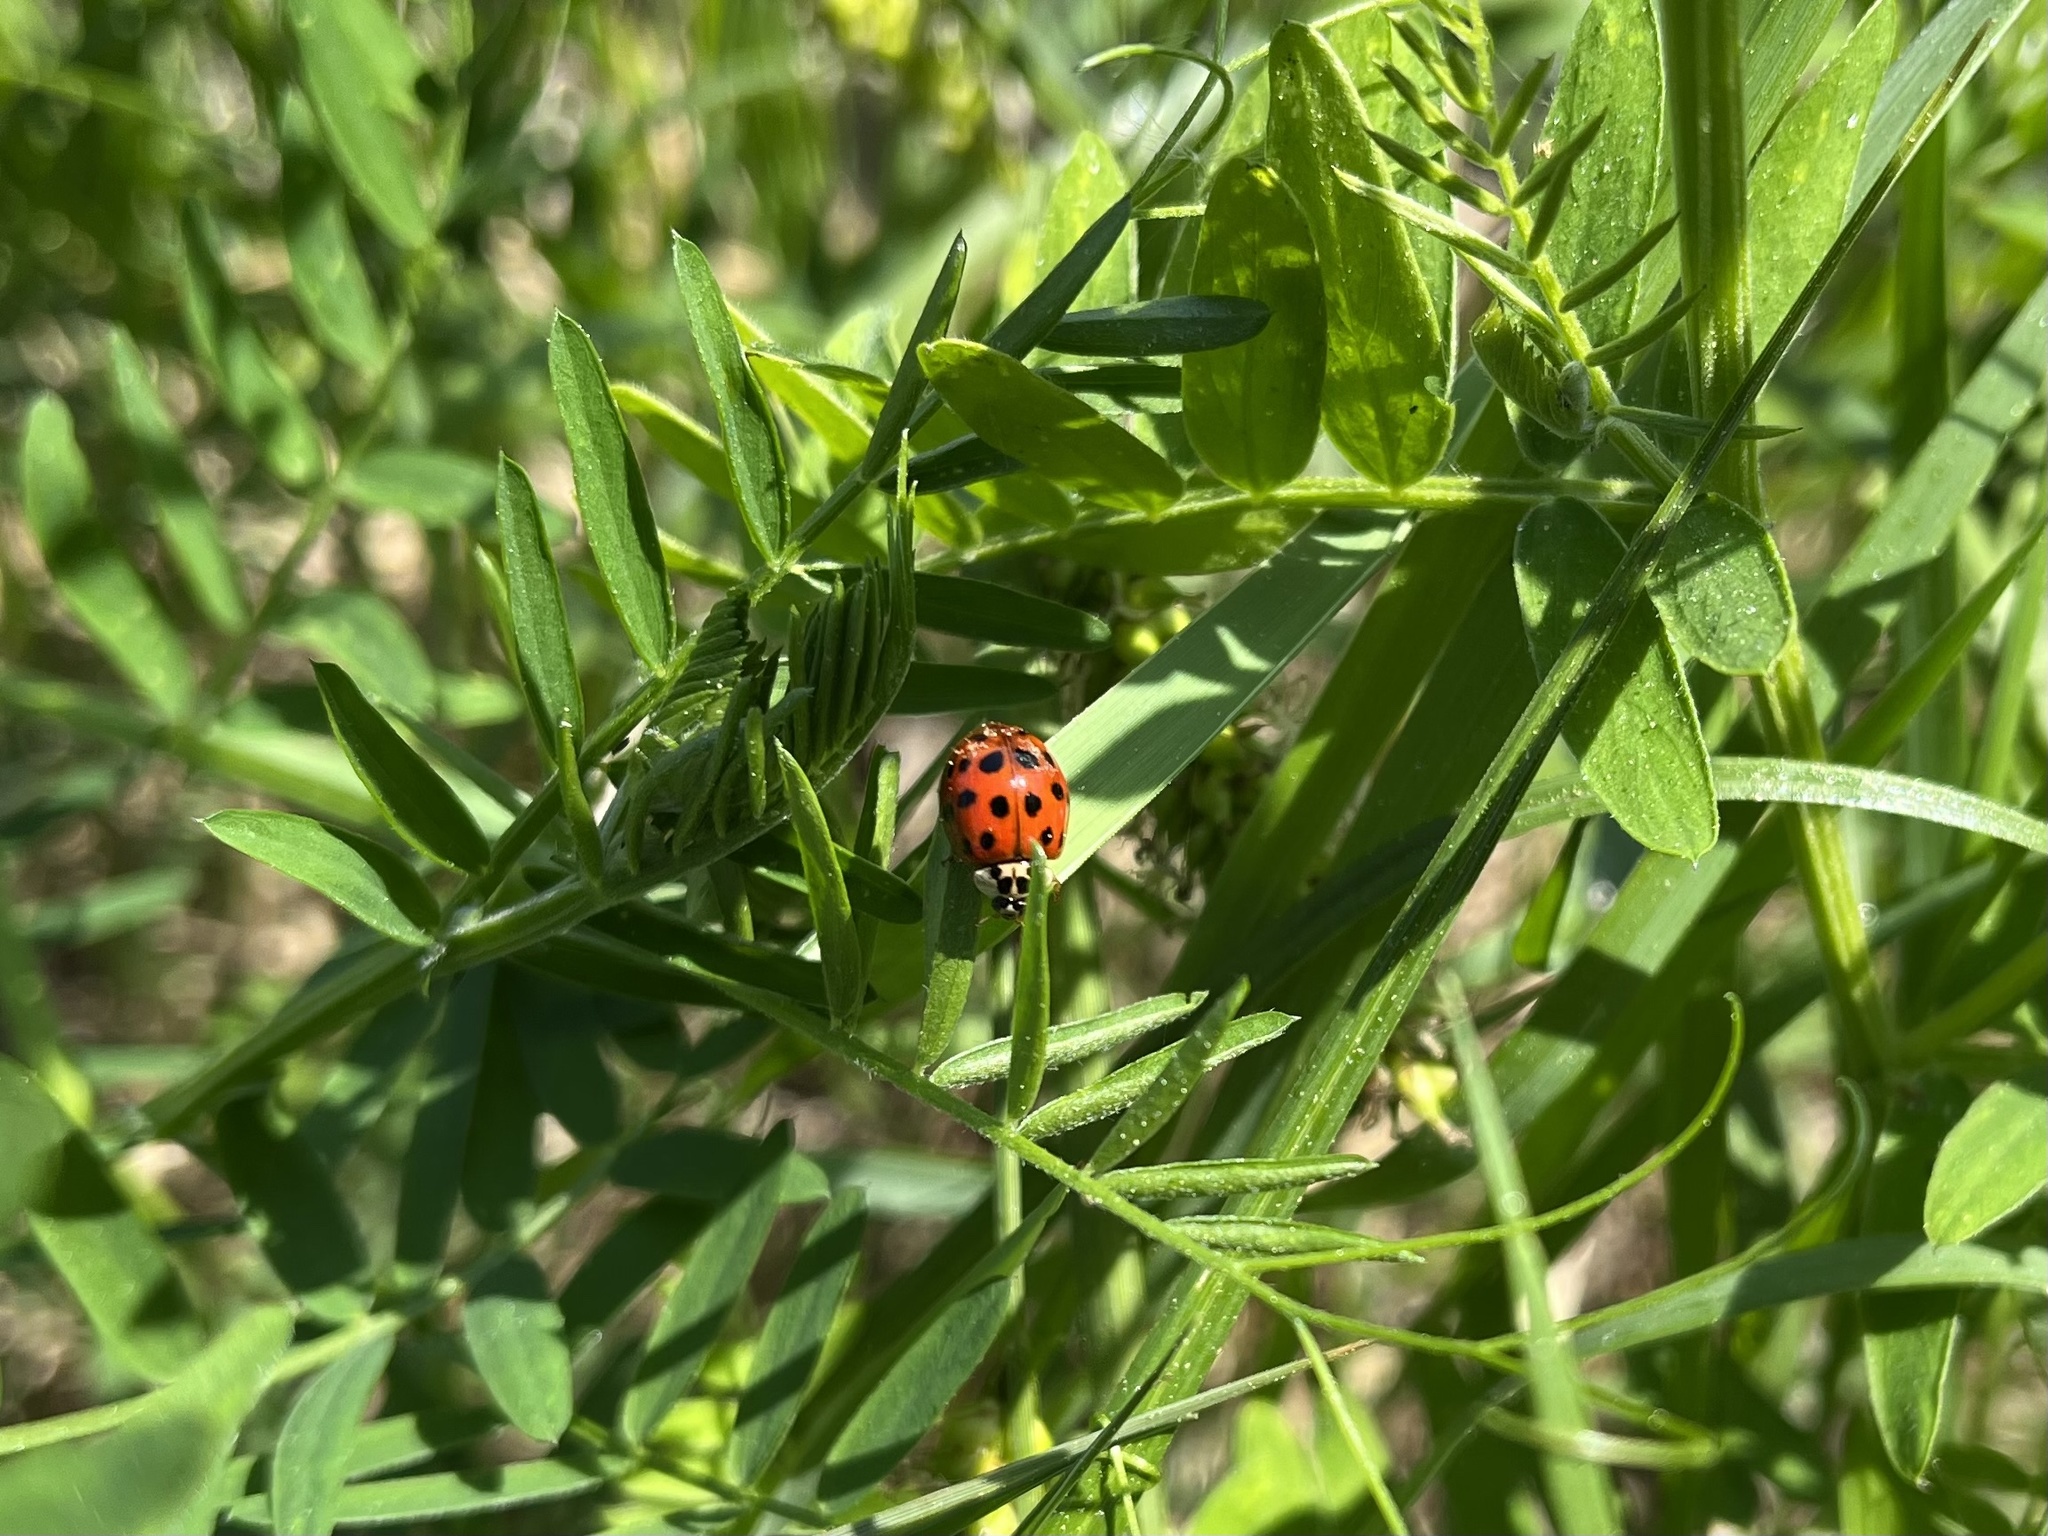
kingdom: Animalia
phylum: Arthropoda
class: Insecta
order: Coleoptera
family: Coccinellidae
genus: Harmonia
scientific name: Harmonia axyridis
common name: Harlequin ladybird
